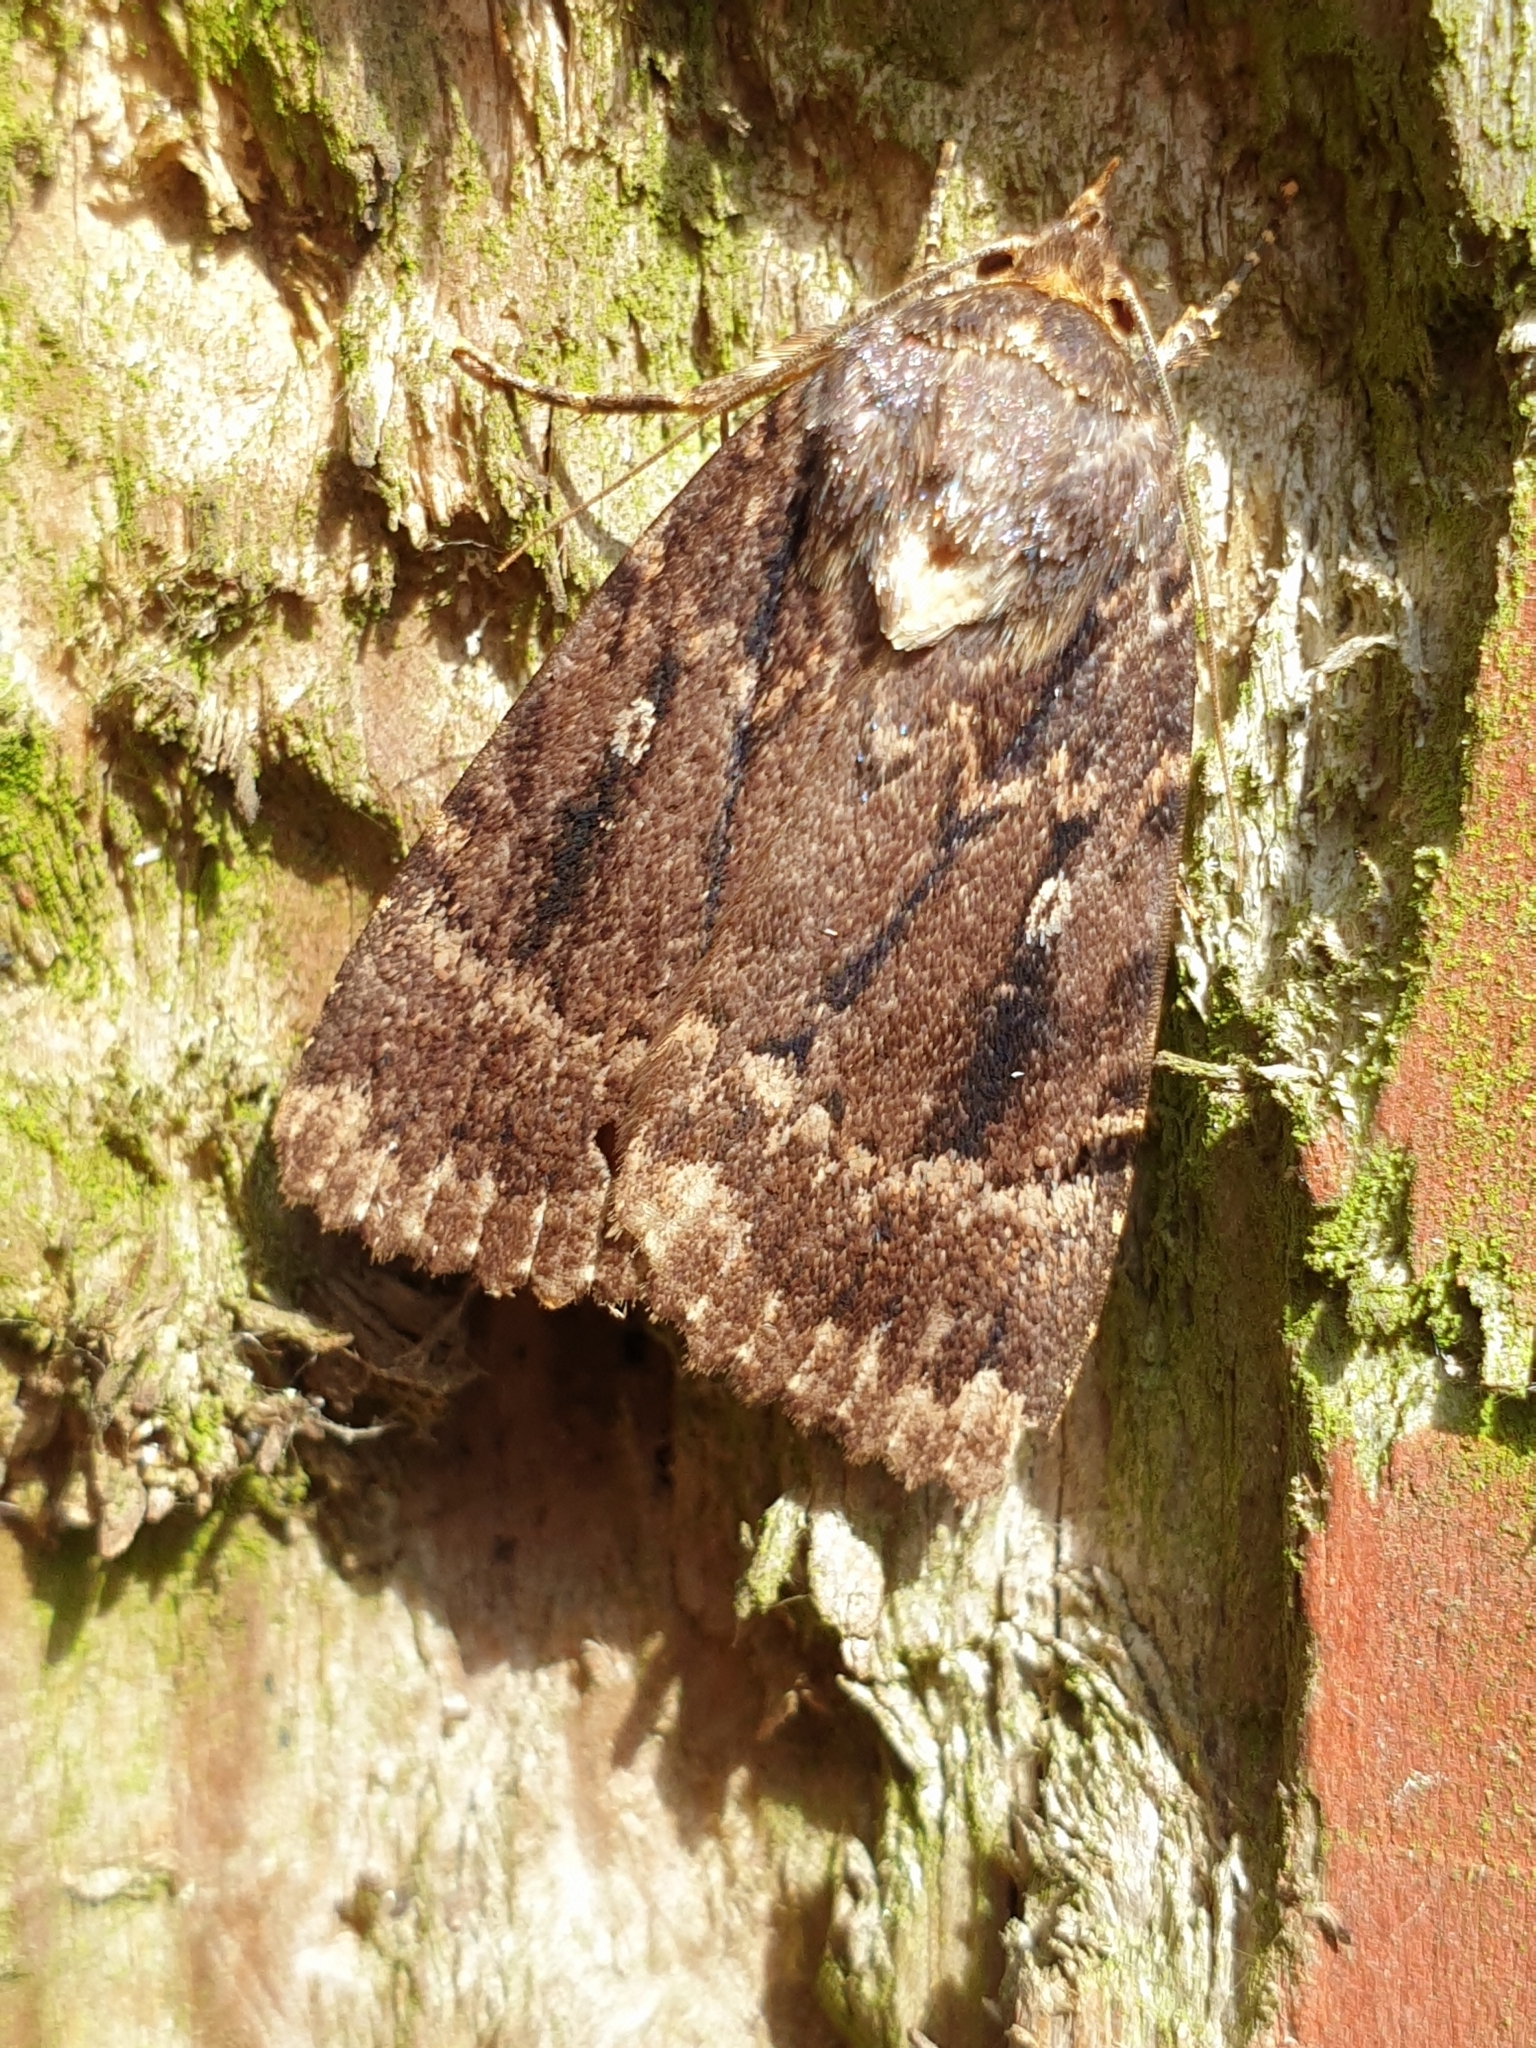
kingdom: Animalia
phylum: Arthropoda
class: Insecta
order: Lepidoptera
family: Noctuidae
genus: Amphipyra
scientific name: Amphipyra pyramidea
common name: Copper underwing
